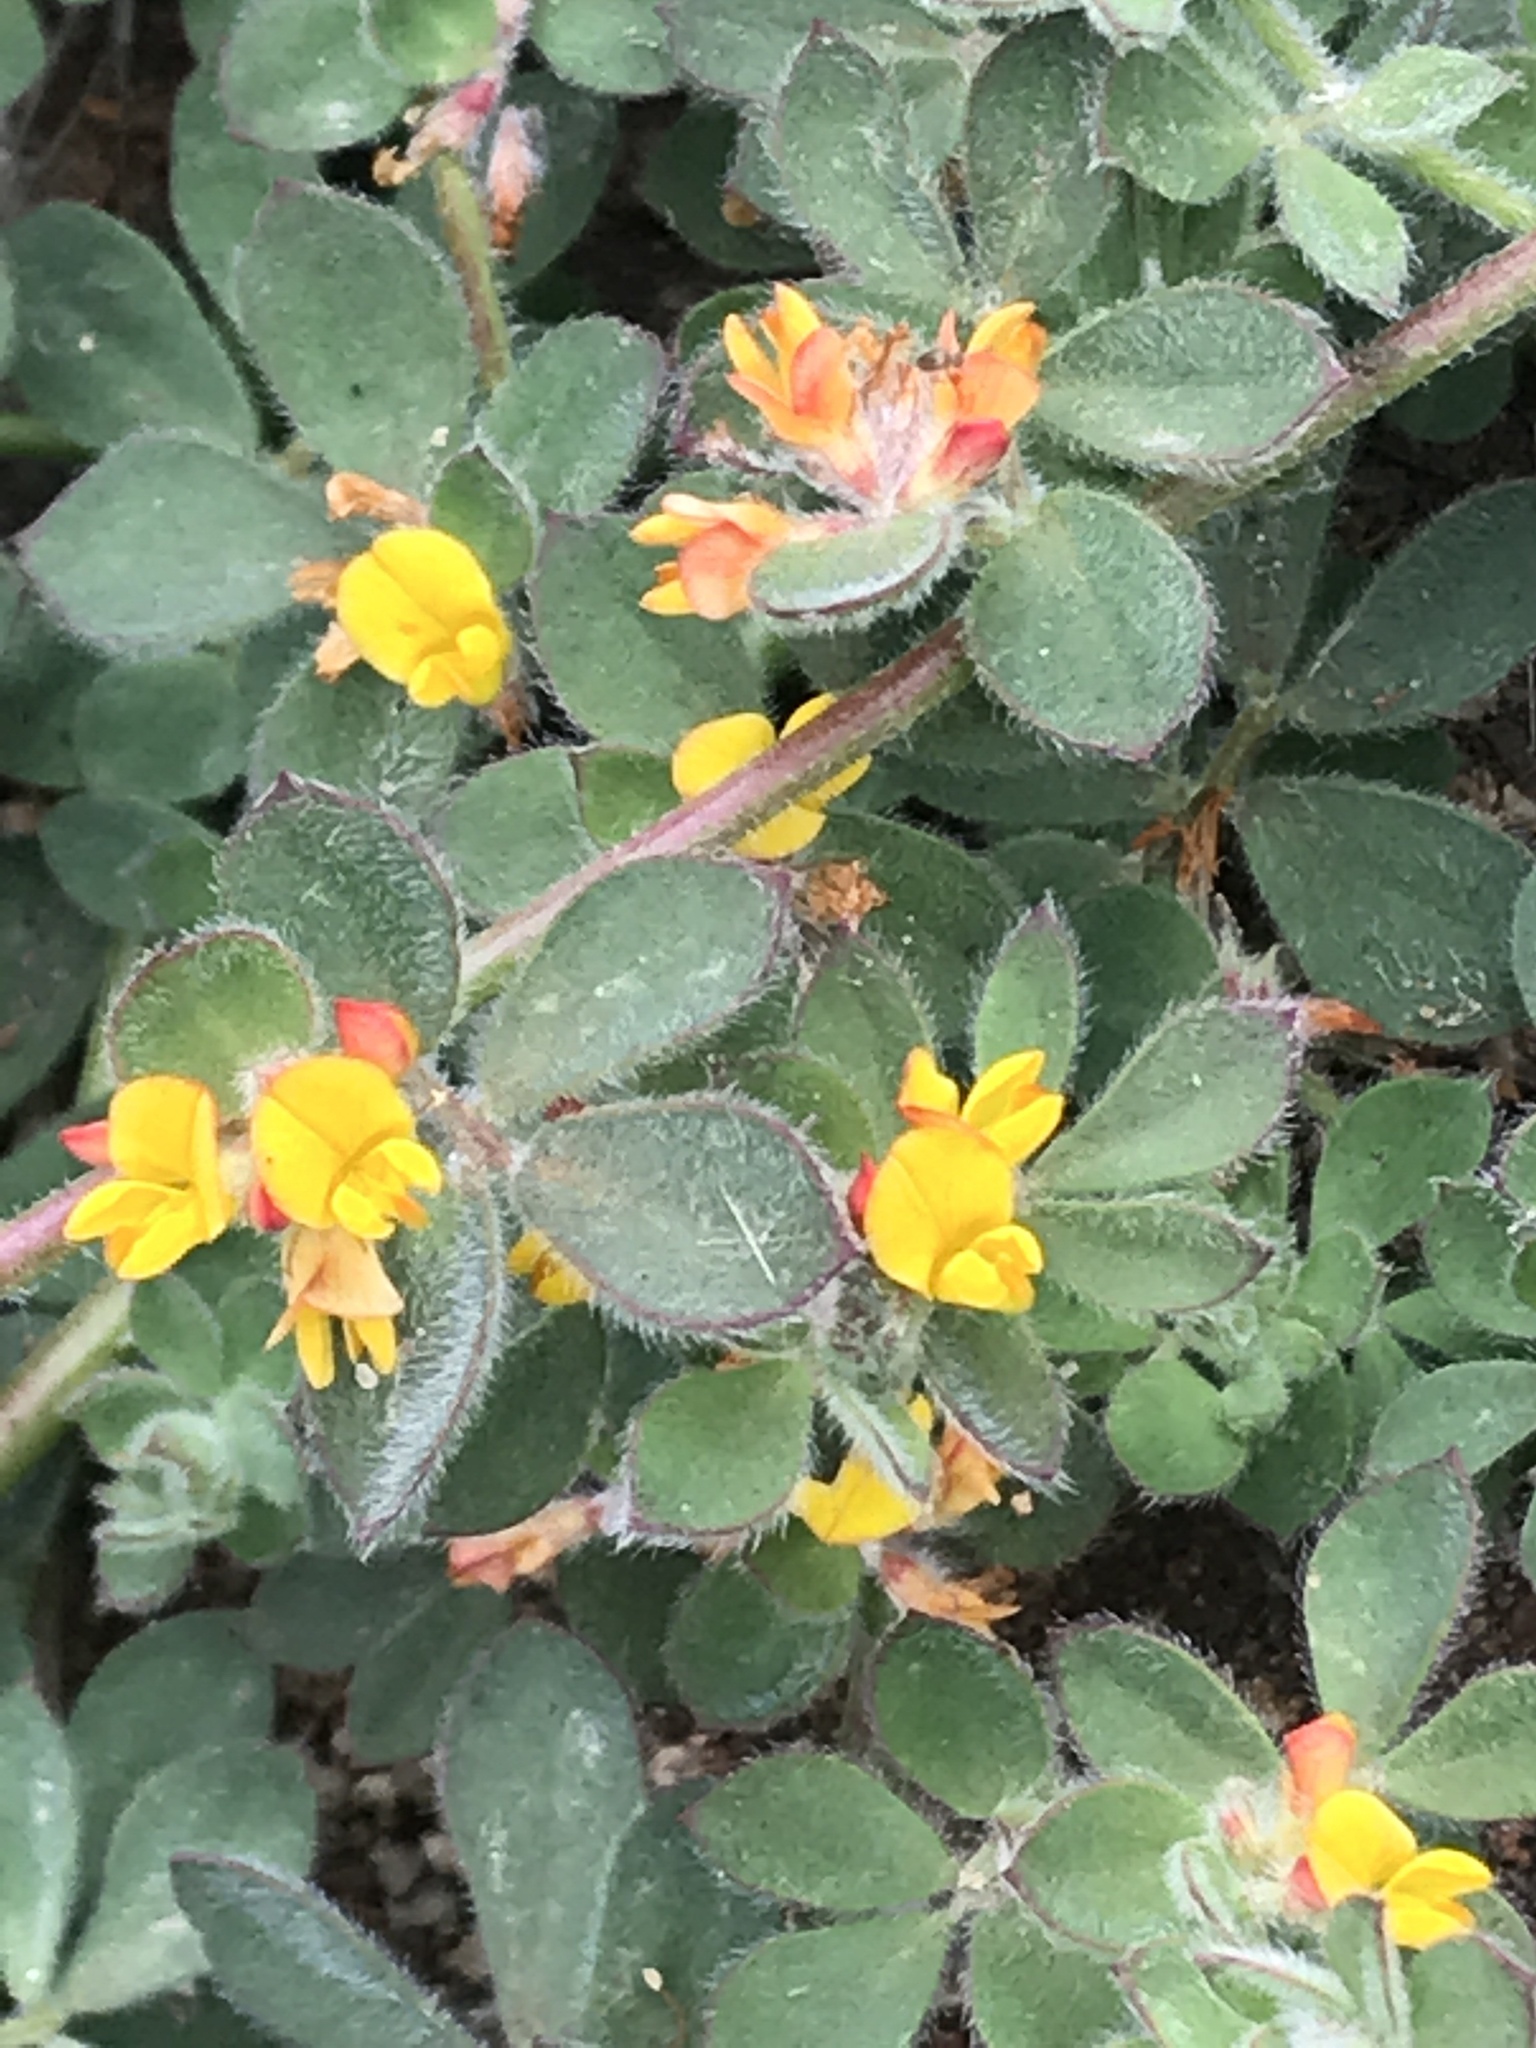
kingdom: Plantae
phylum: Tracheophyta
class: Magnoliopsida
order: Fabales
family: Fabaceae
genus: Acmispon
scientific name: Acmispon tomentosus
